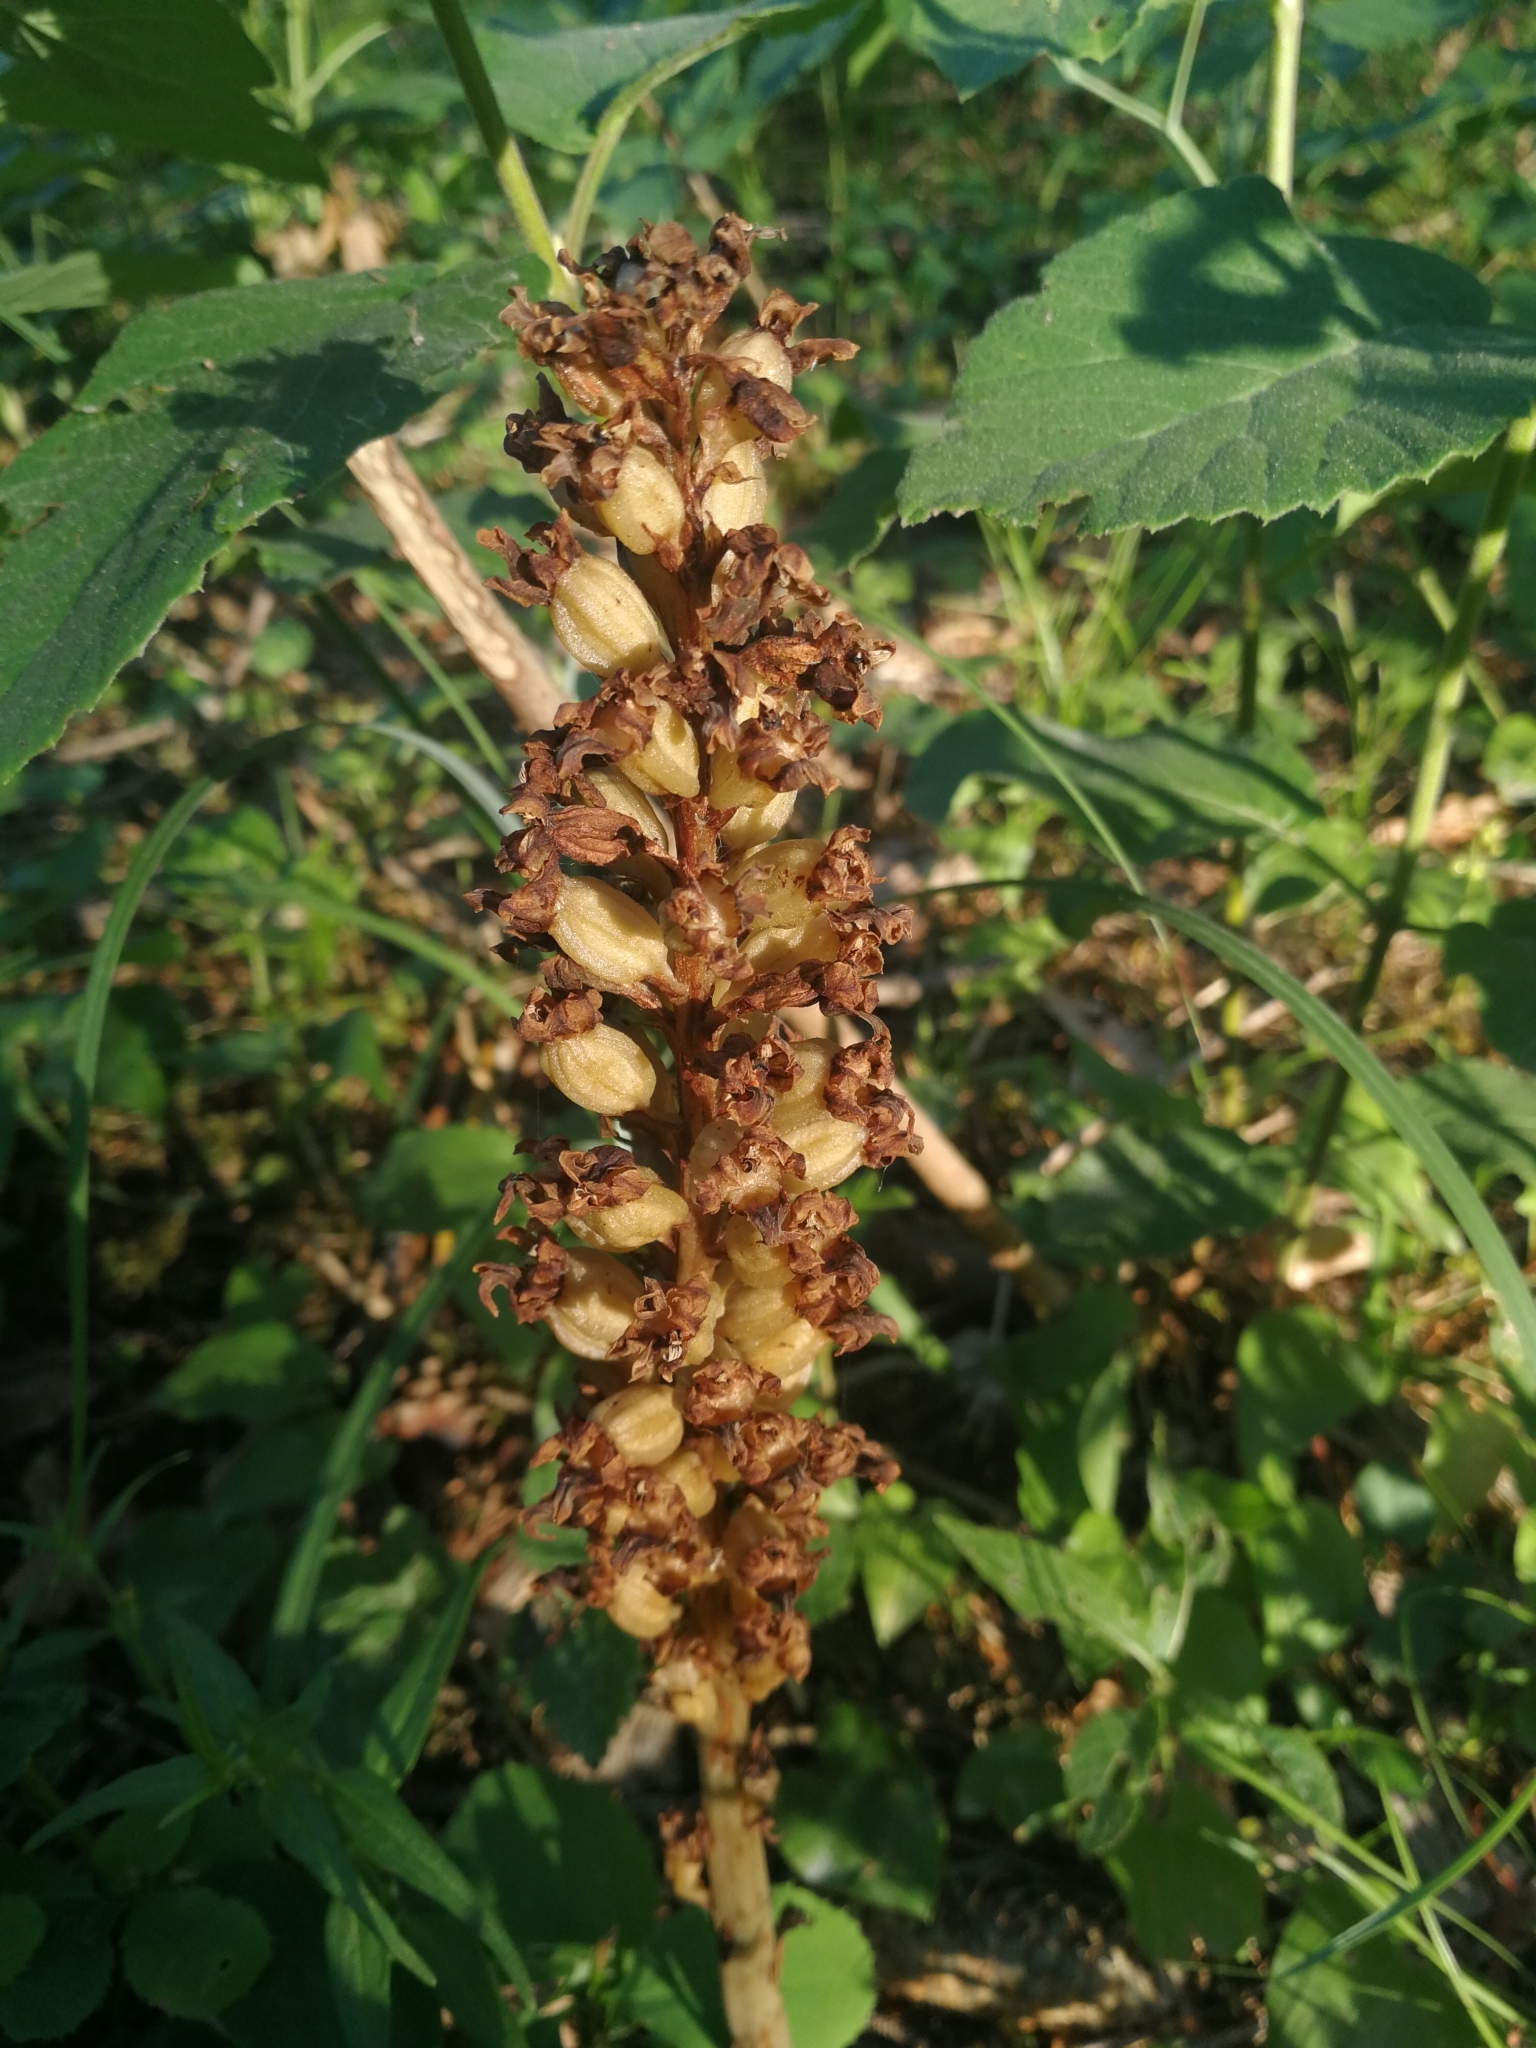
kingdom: Plantae
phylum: Tracheophyta
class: Liliopsida
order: Asparagales
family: Orchidaceae
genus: Neottia
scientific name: Neottia nidus-avis
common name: Bird's-nest orchid
